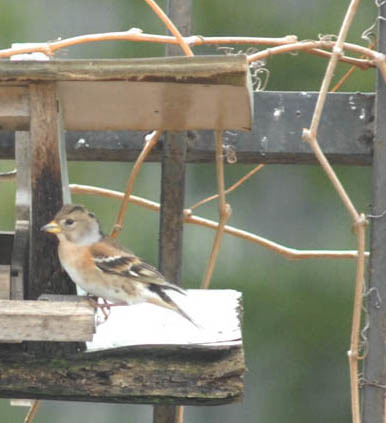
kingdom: Animalia
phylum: Chordata
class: Aves
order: Passeriformes
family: Fringillidae
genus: Fringilla
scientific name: Fringilla montifringilla
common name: Brambling
